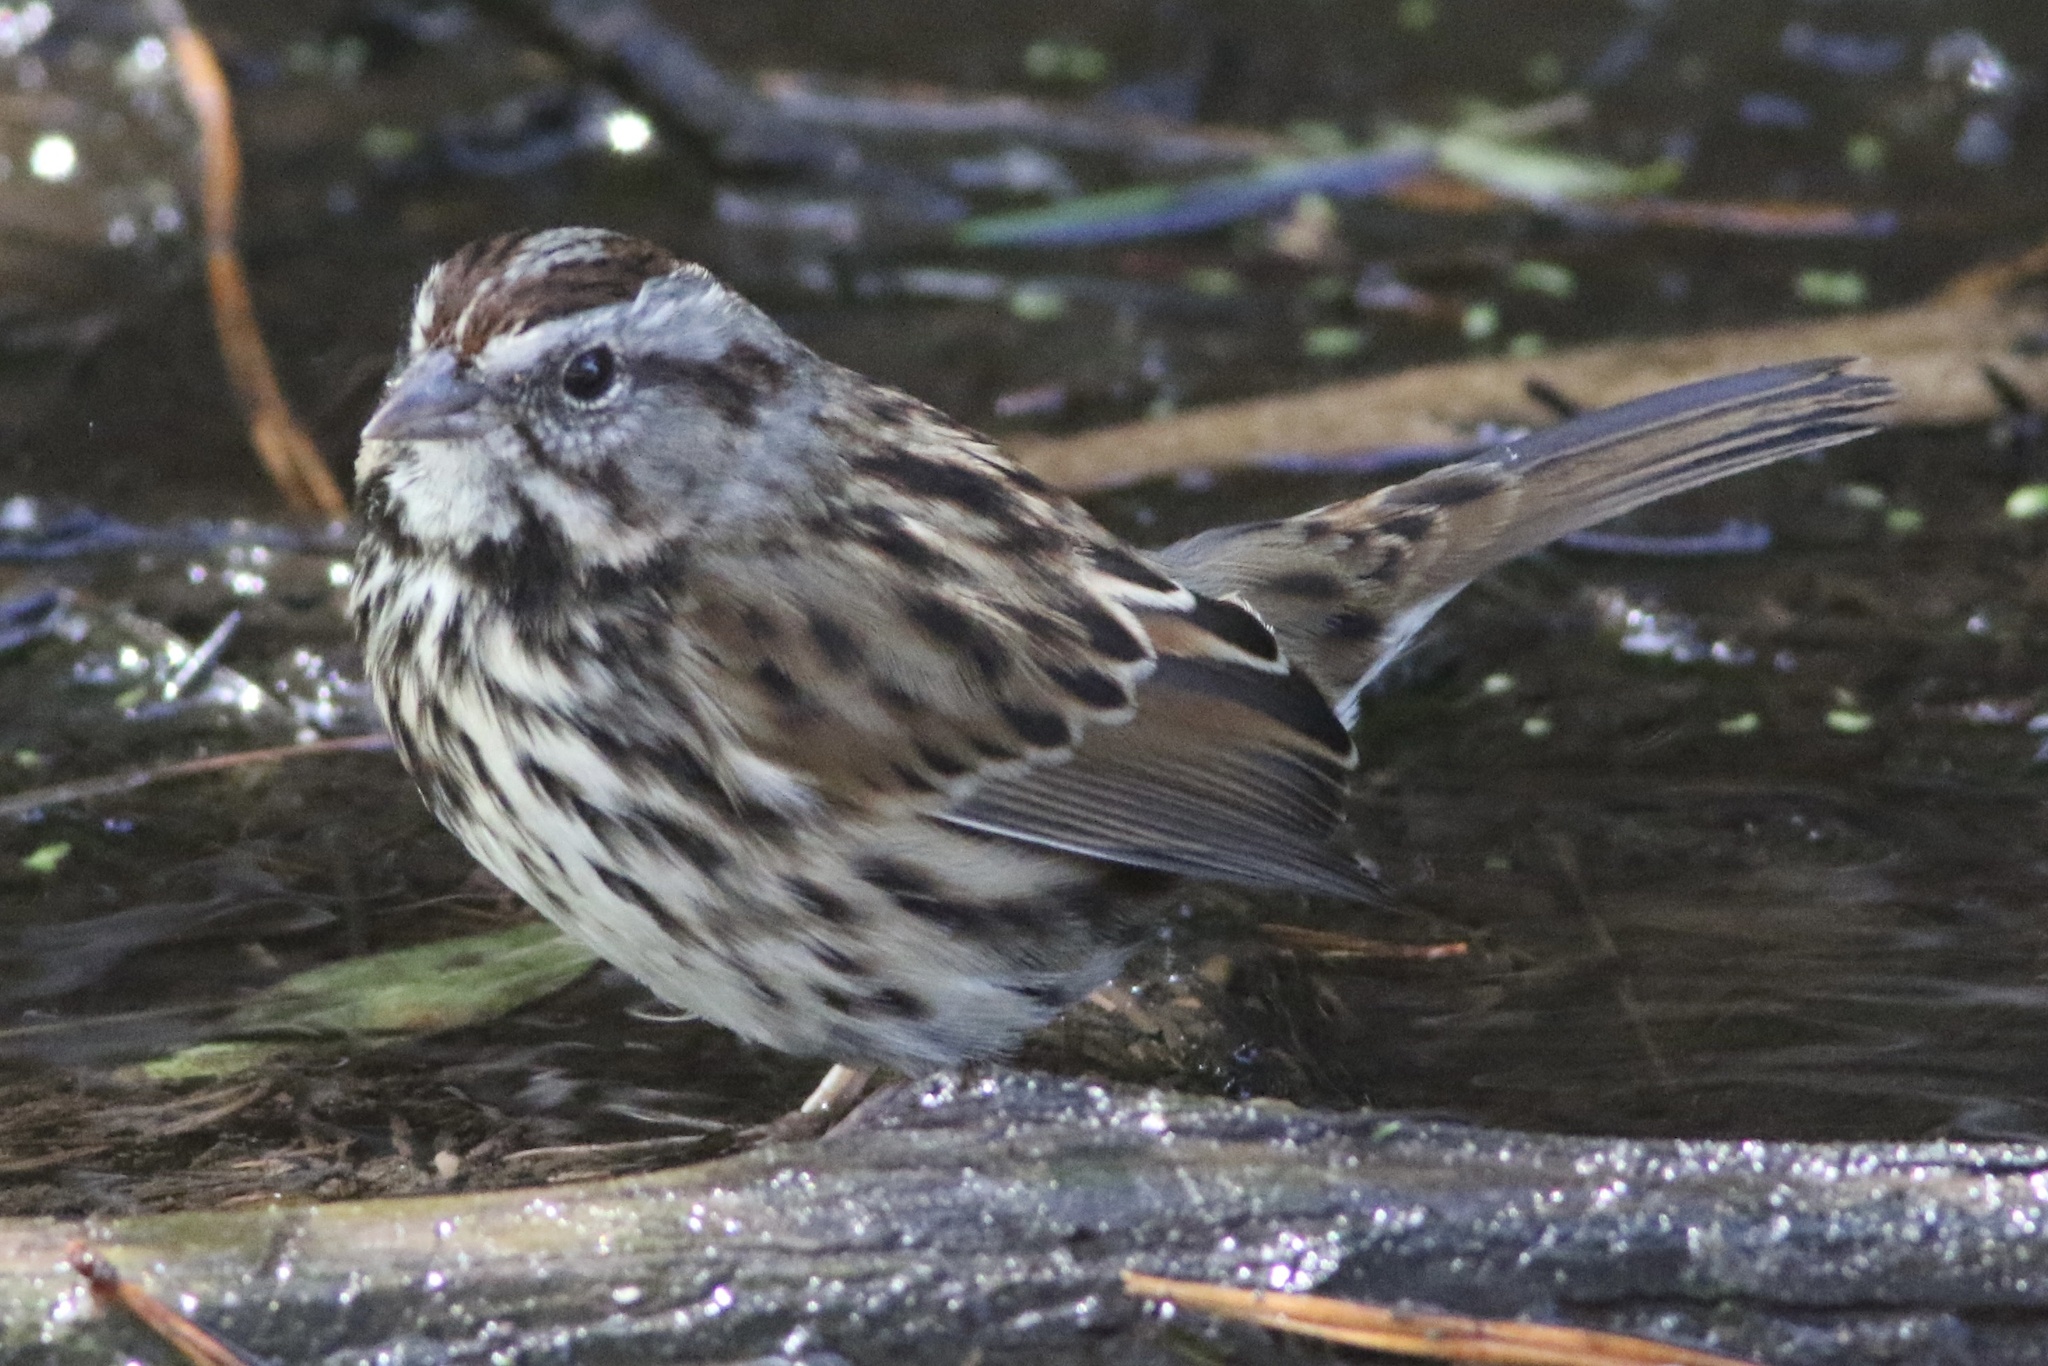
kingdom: Animalia
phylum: Chordata
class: Aves
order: Passeriformes
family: Passerellidae
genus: Melospiza
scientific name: Melospiza melodia
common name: Song sparrow
